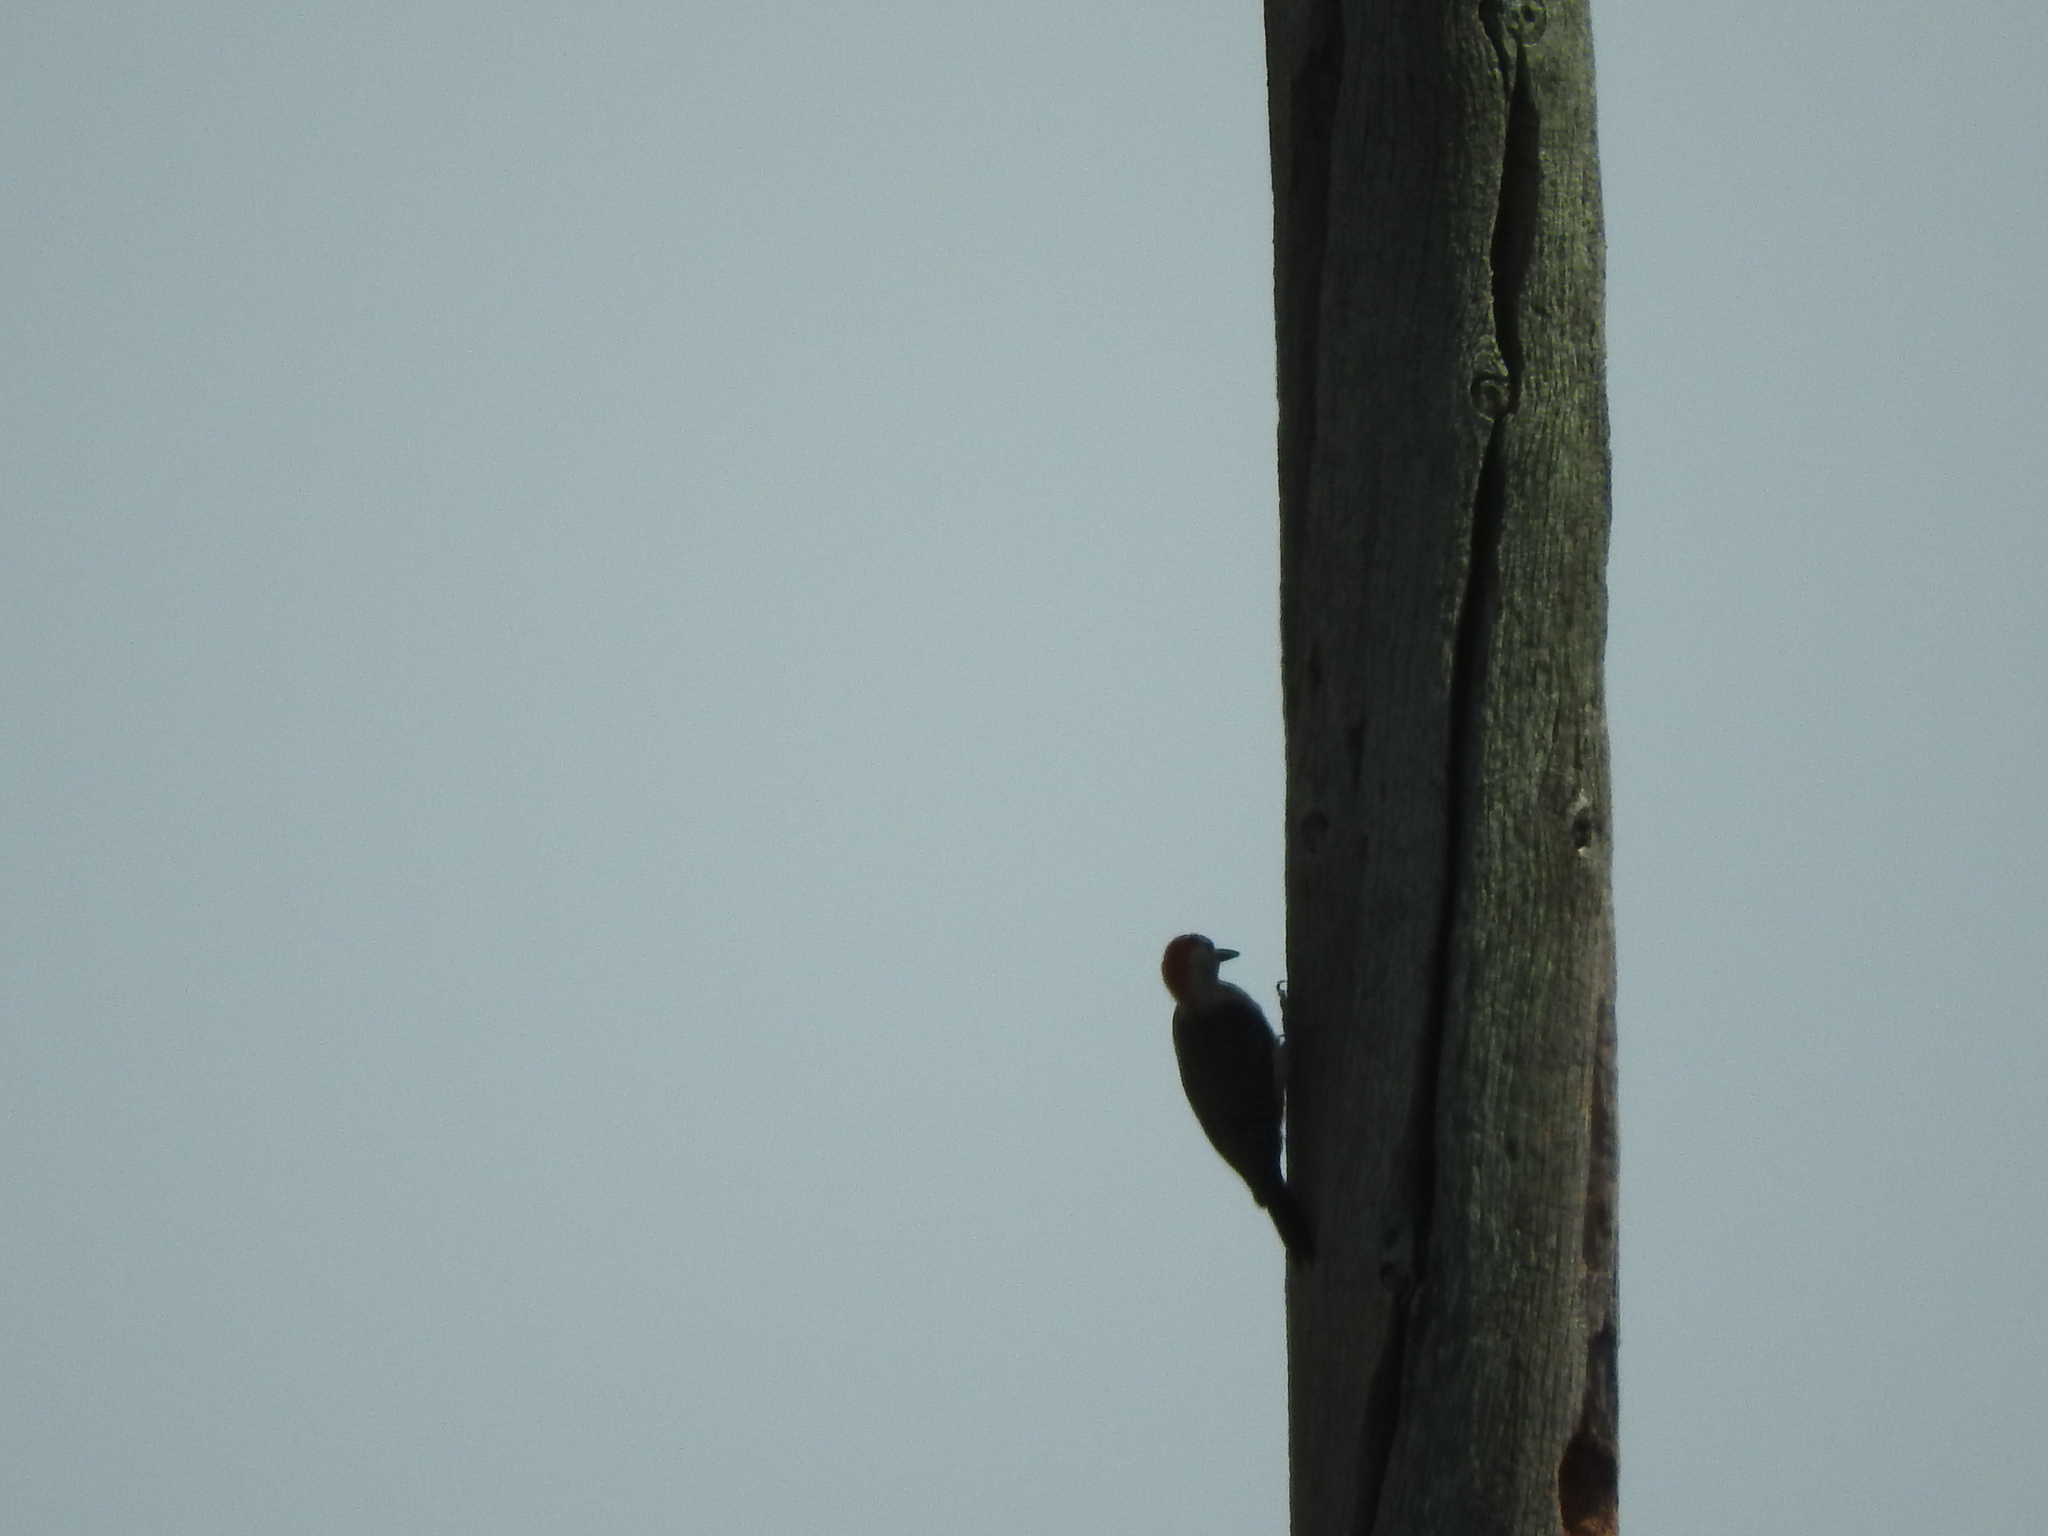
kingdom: Animalia
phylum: Chordata
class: Aves
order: Piciformes
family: Picidae
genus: Melanerpes
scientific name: Melanerpes santacruzi
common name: Velasquez's woodpecker
